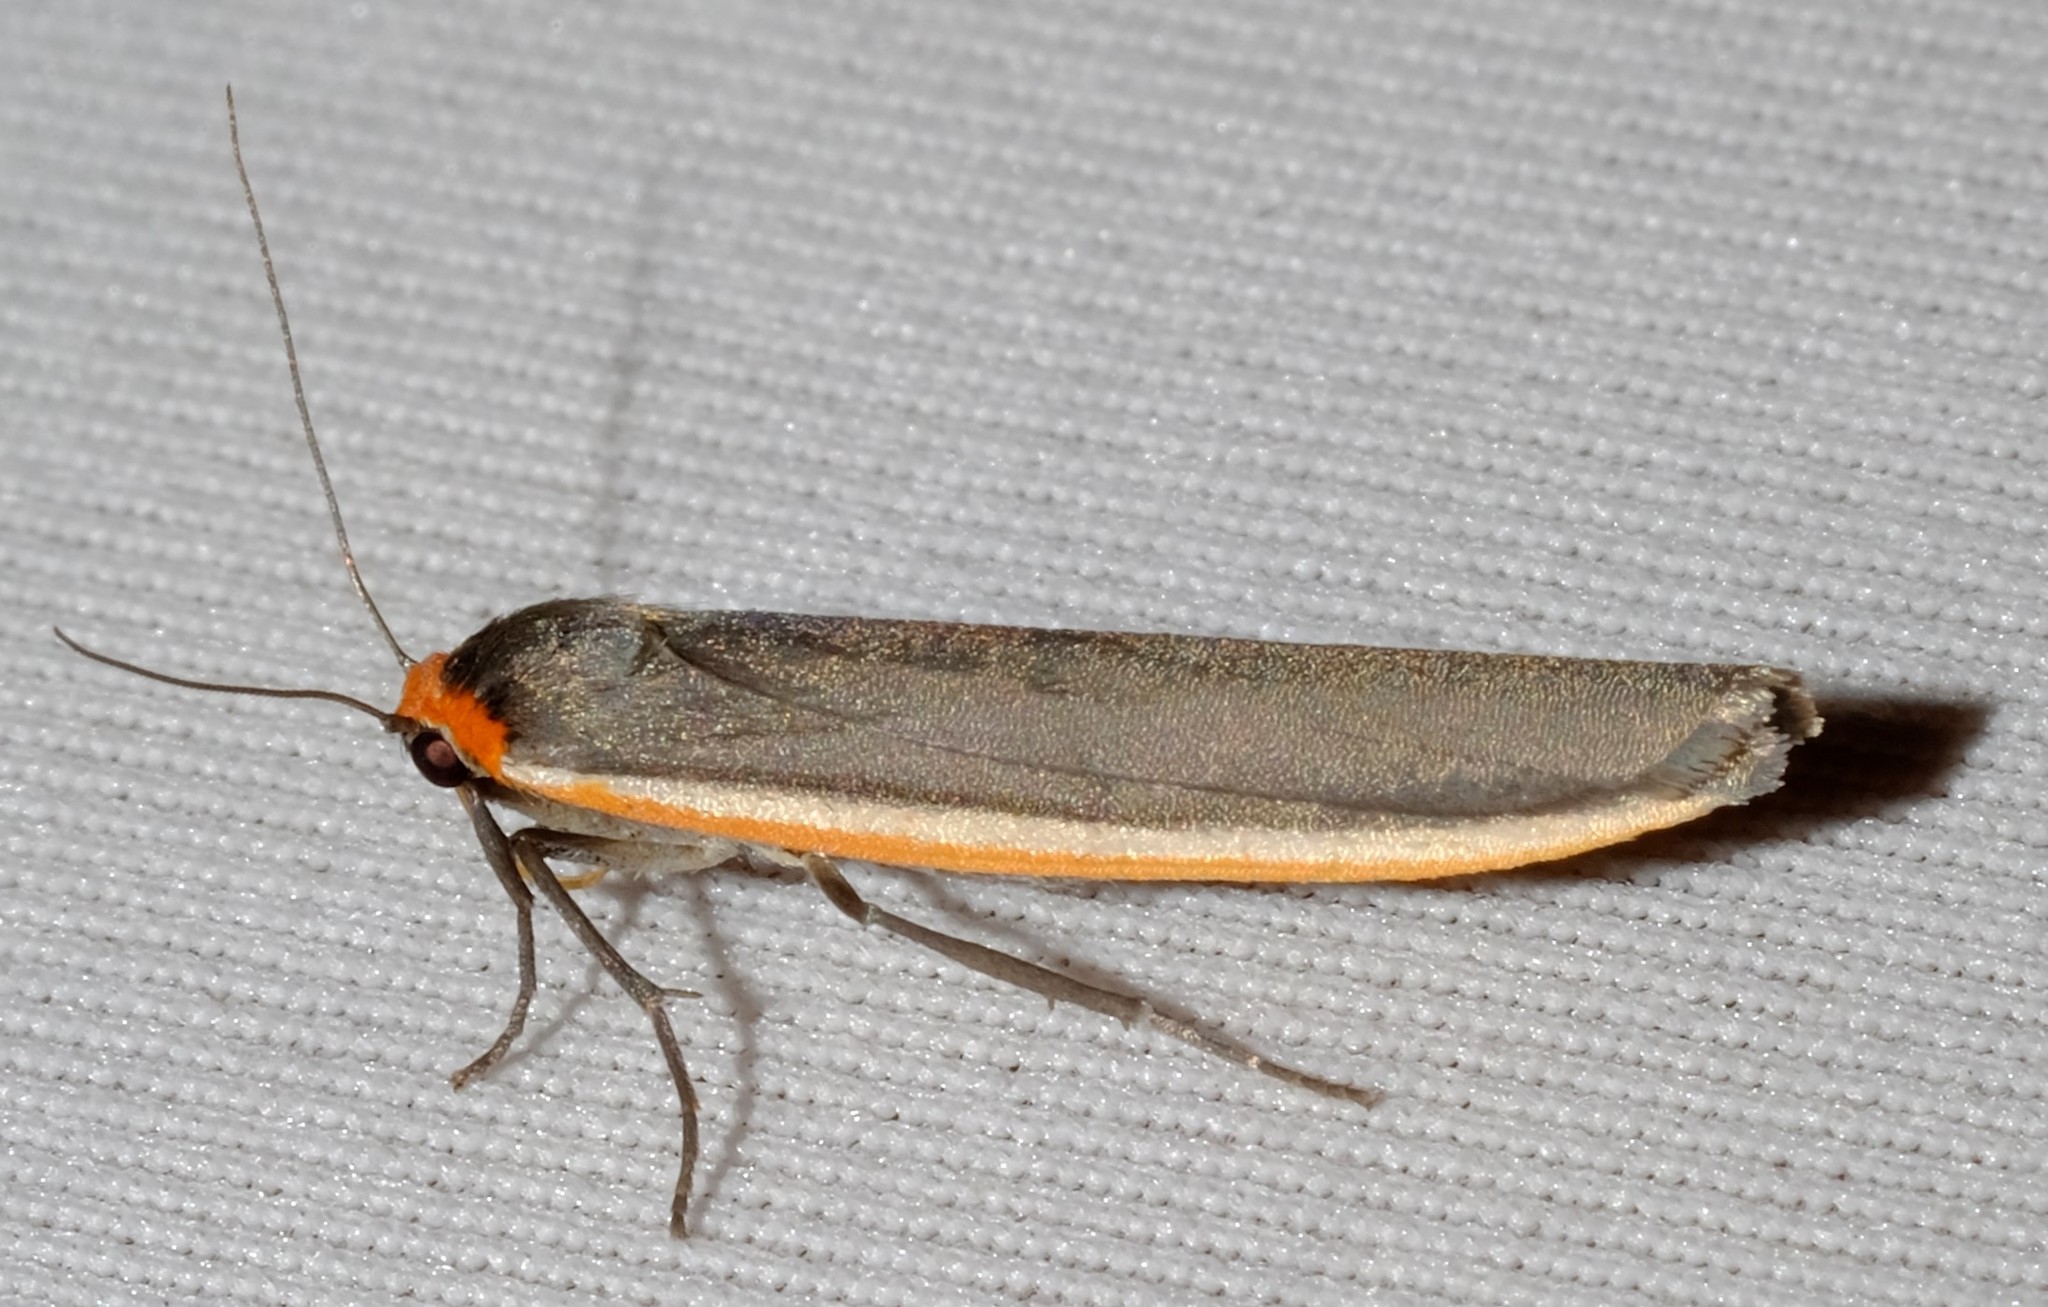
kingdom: Animalia
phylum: Arthropoda
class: Insecta
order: Lepidoptera
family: Erebidae
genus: Palaeosia
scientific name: Palaeosia bicosta
